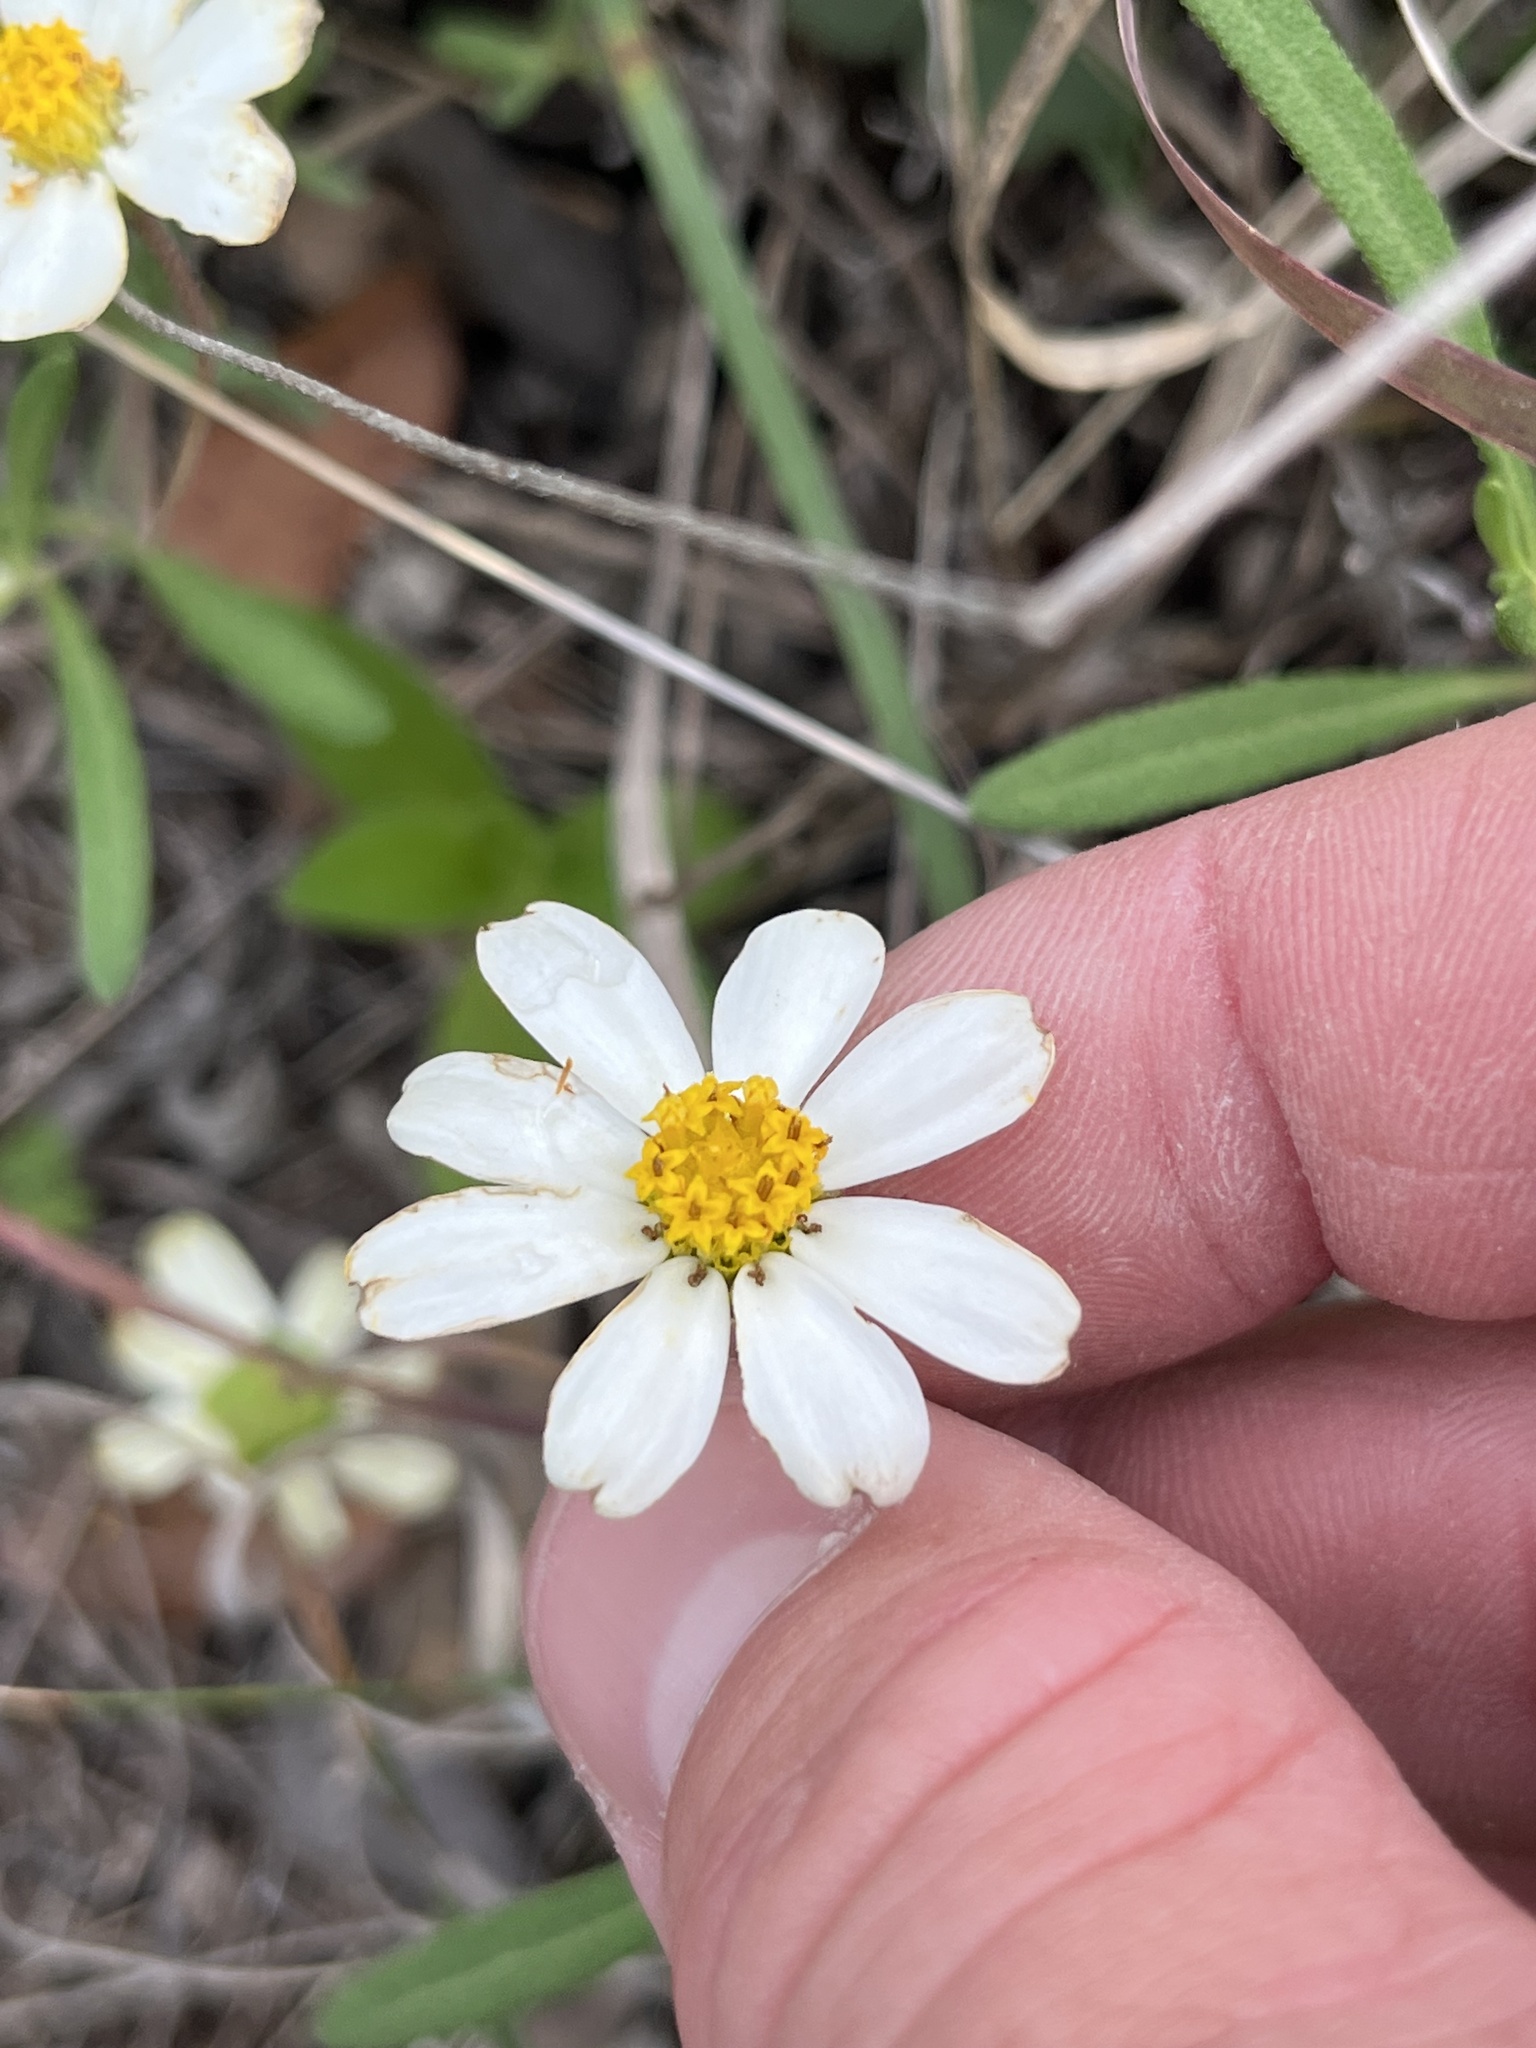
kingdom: Plantae
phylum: Tracheophyta
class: Magnoliopsida
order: Asterales
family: Asteraceae
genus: Melampodium
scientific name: Melampodium leucanthum
